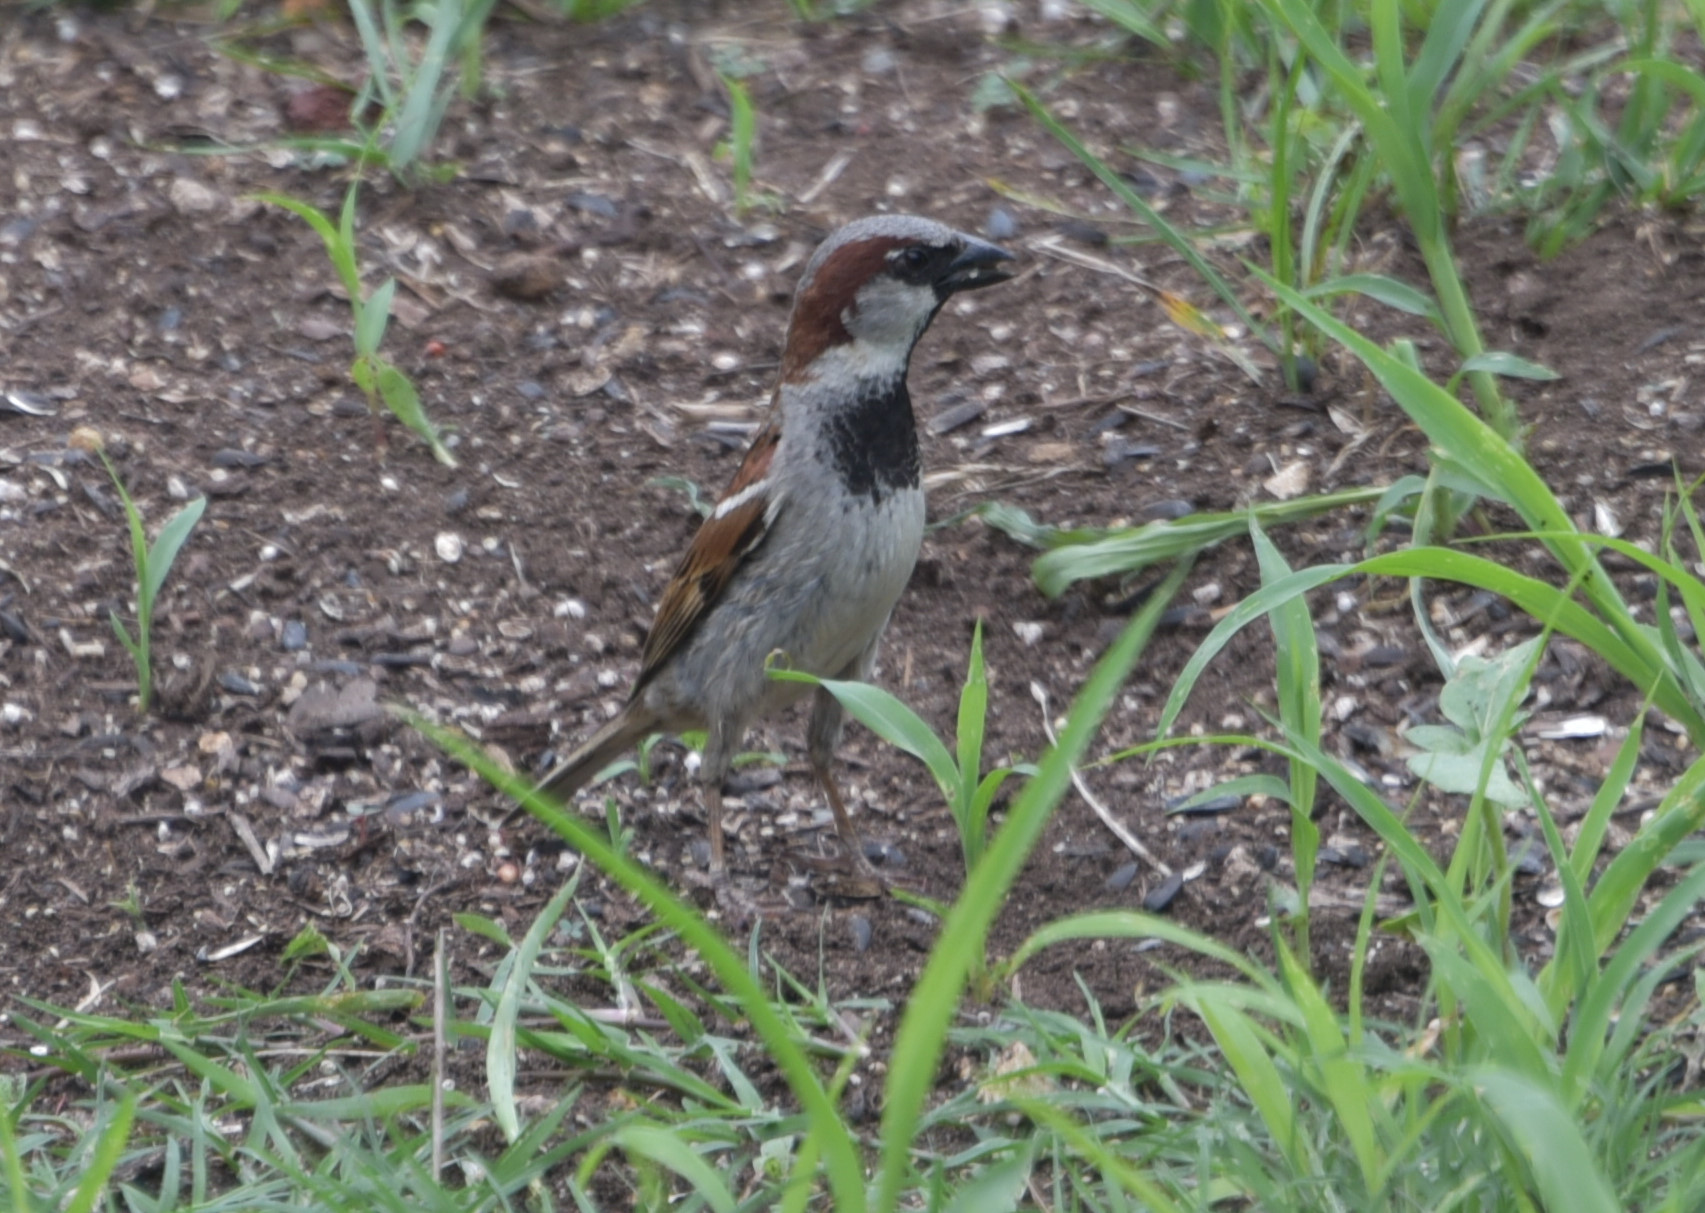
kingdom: Animalia
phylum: Chordata
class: Aves
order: Passeriformes
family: Passeridae
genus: Passer
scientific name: Passer domesticus
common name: House sparrow
